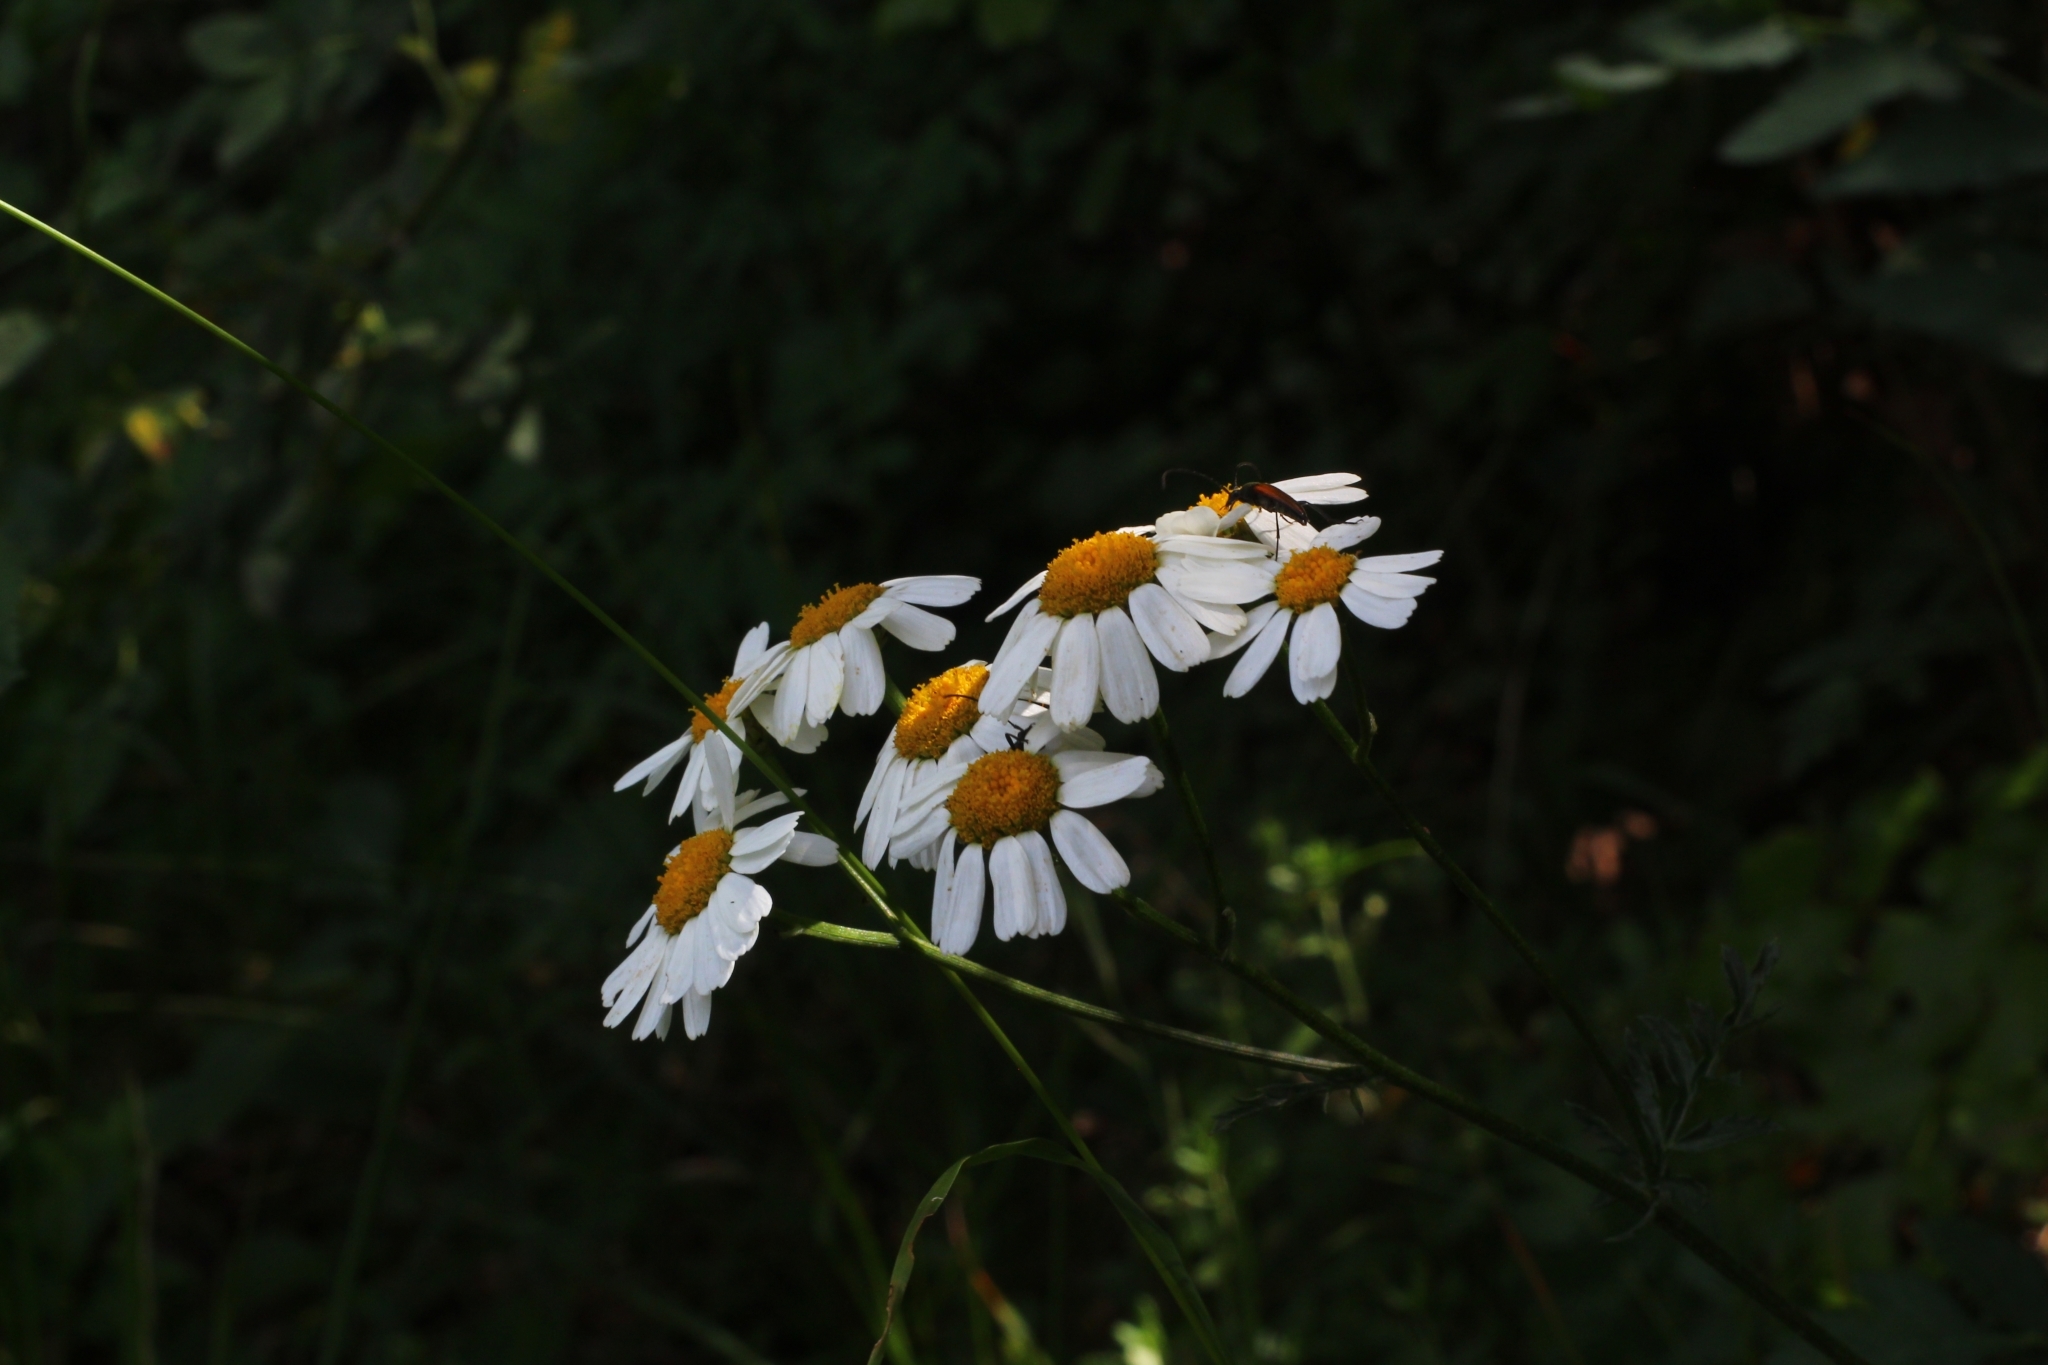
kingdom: Plantae
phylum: Tracheophyta
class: Magnoliopsida
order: Asterales
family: Asteraceae
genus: Tanacetum
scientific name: Tanacetum corymbosum
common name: Scentless feverfew
